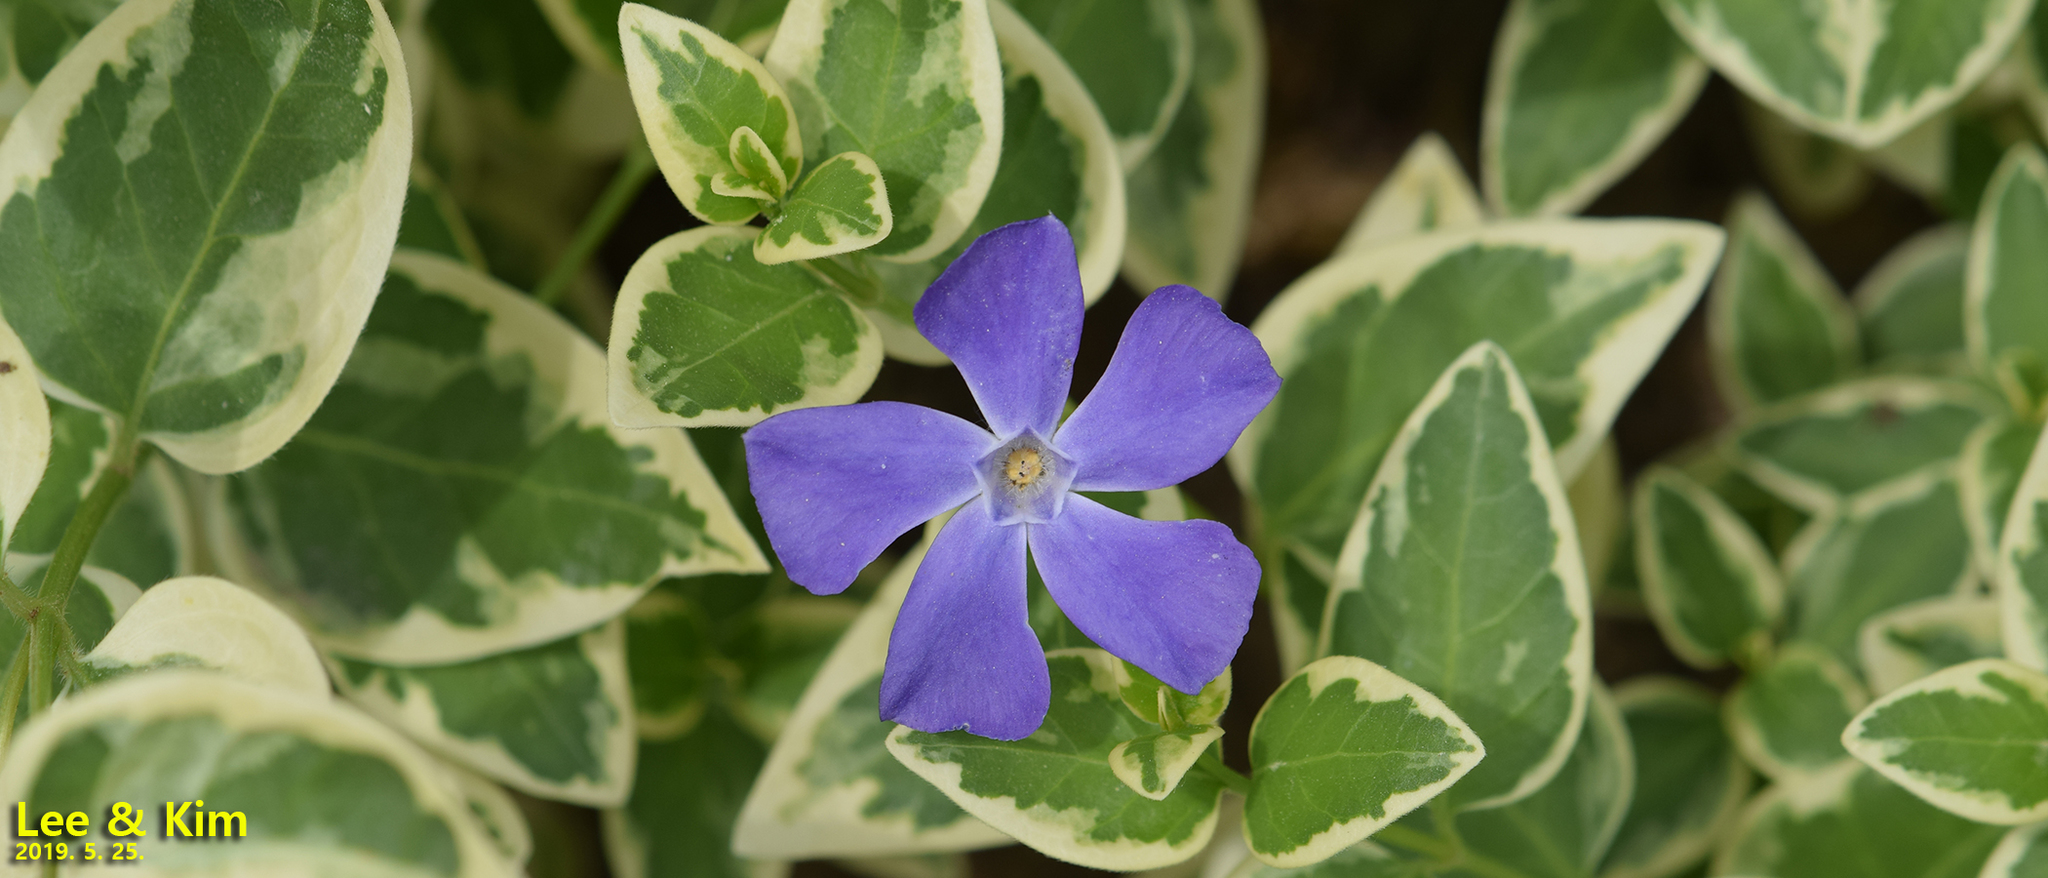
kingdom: Plantae
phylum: Tracheophyta
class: Magnoliopsida
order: Gentianales
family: Apocynaceae
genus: Vinca
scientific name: Vinca major
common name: Greater periwinkle
